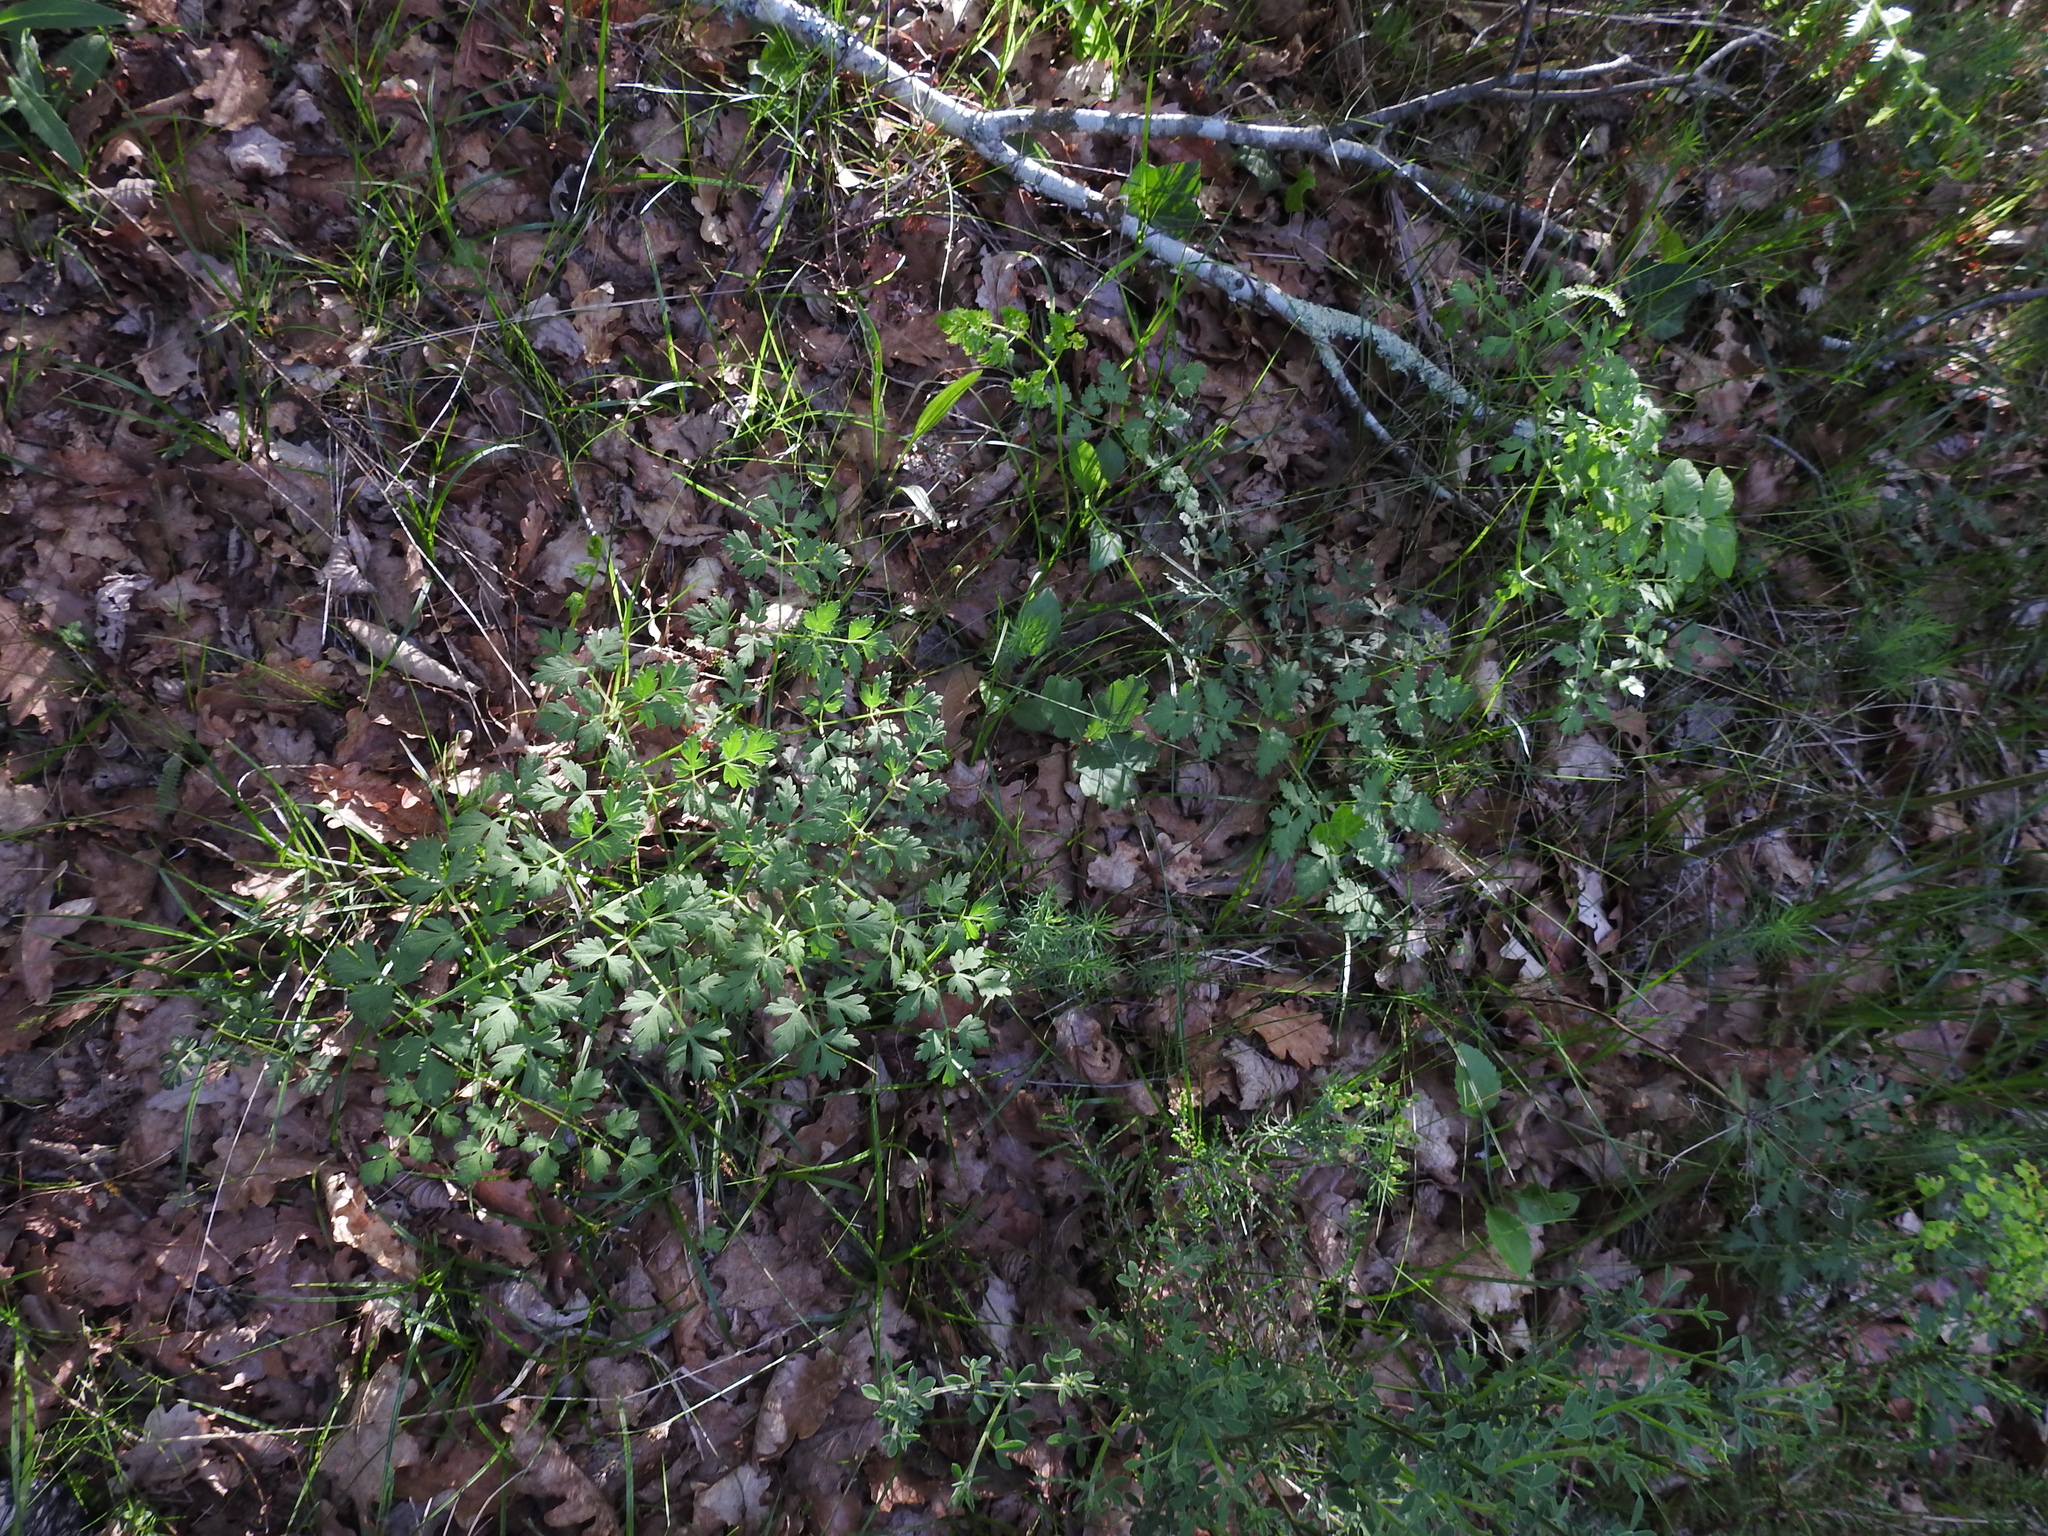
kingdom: Plantae
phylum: Tracheophyta
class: Magnoliopsida
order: Apiales
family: Apiaceae
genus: Oreoselinum
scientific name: Oreoselinum nigrum
